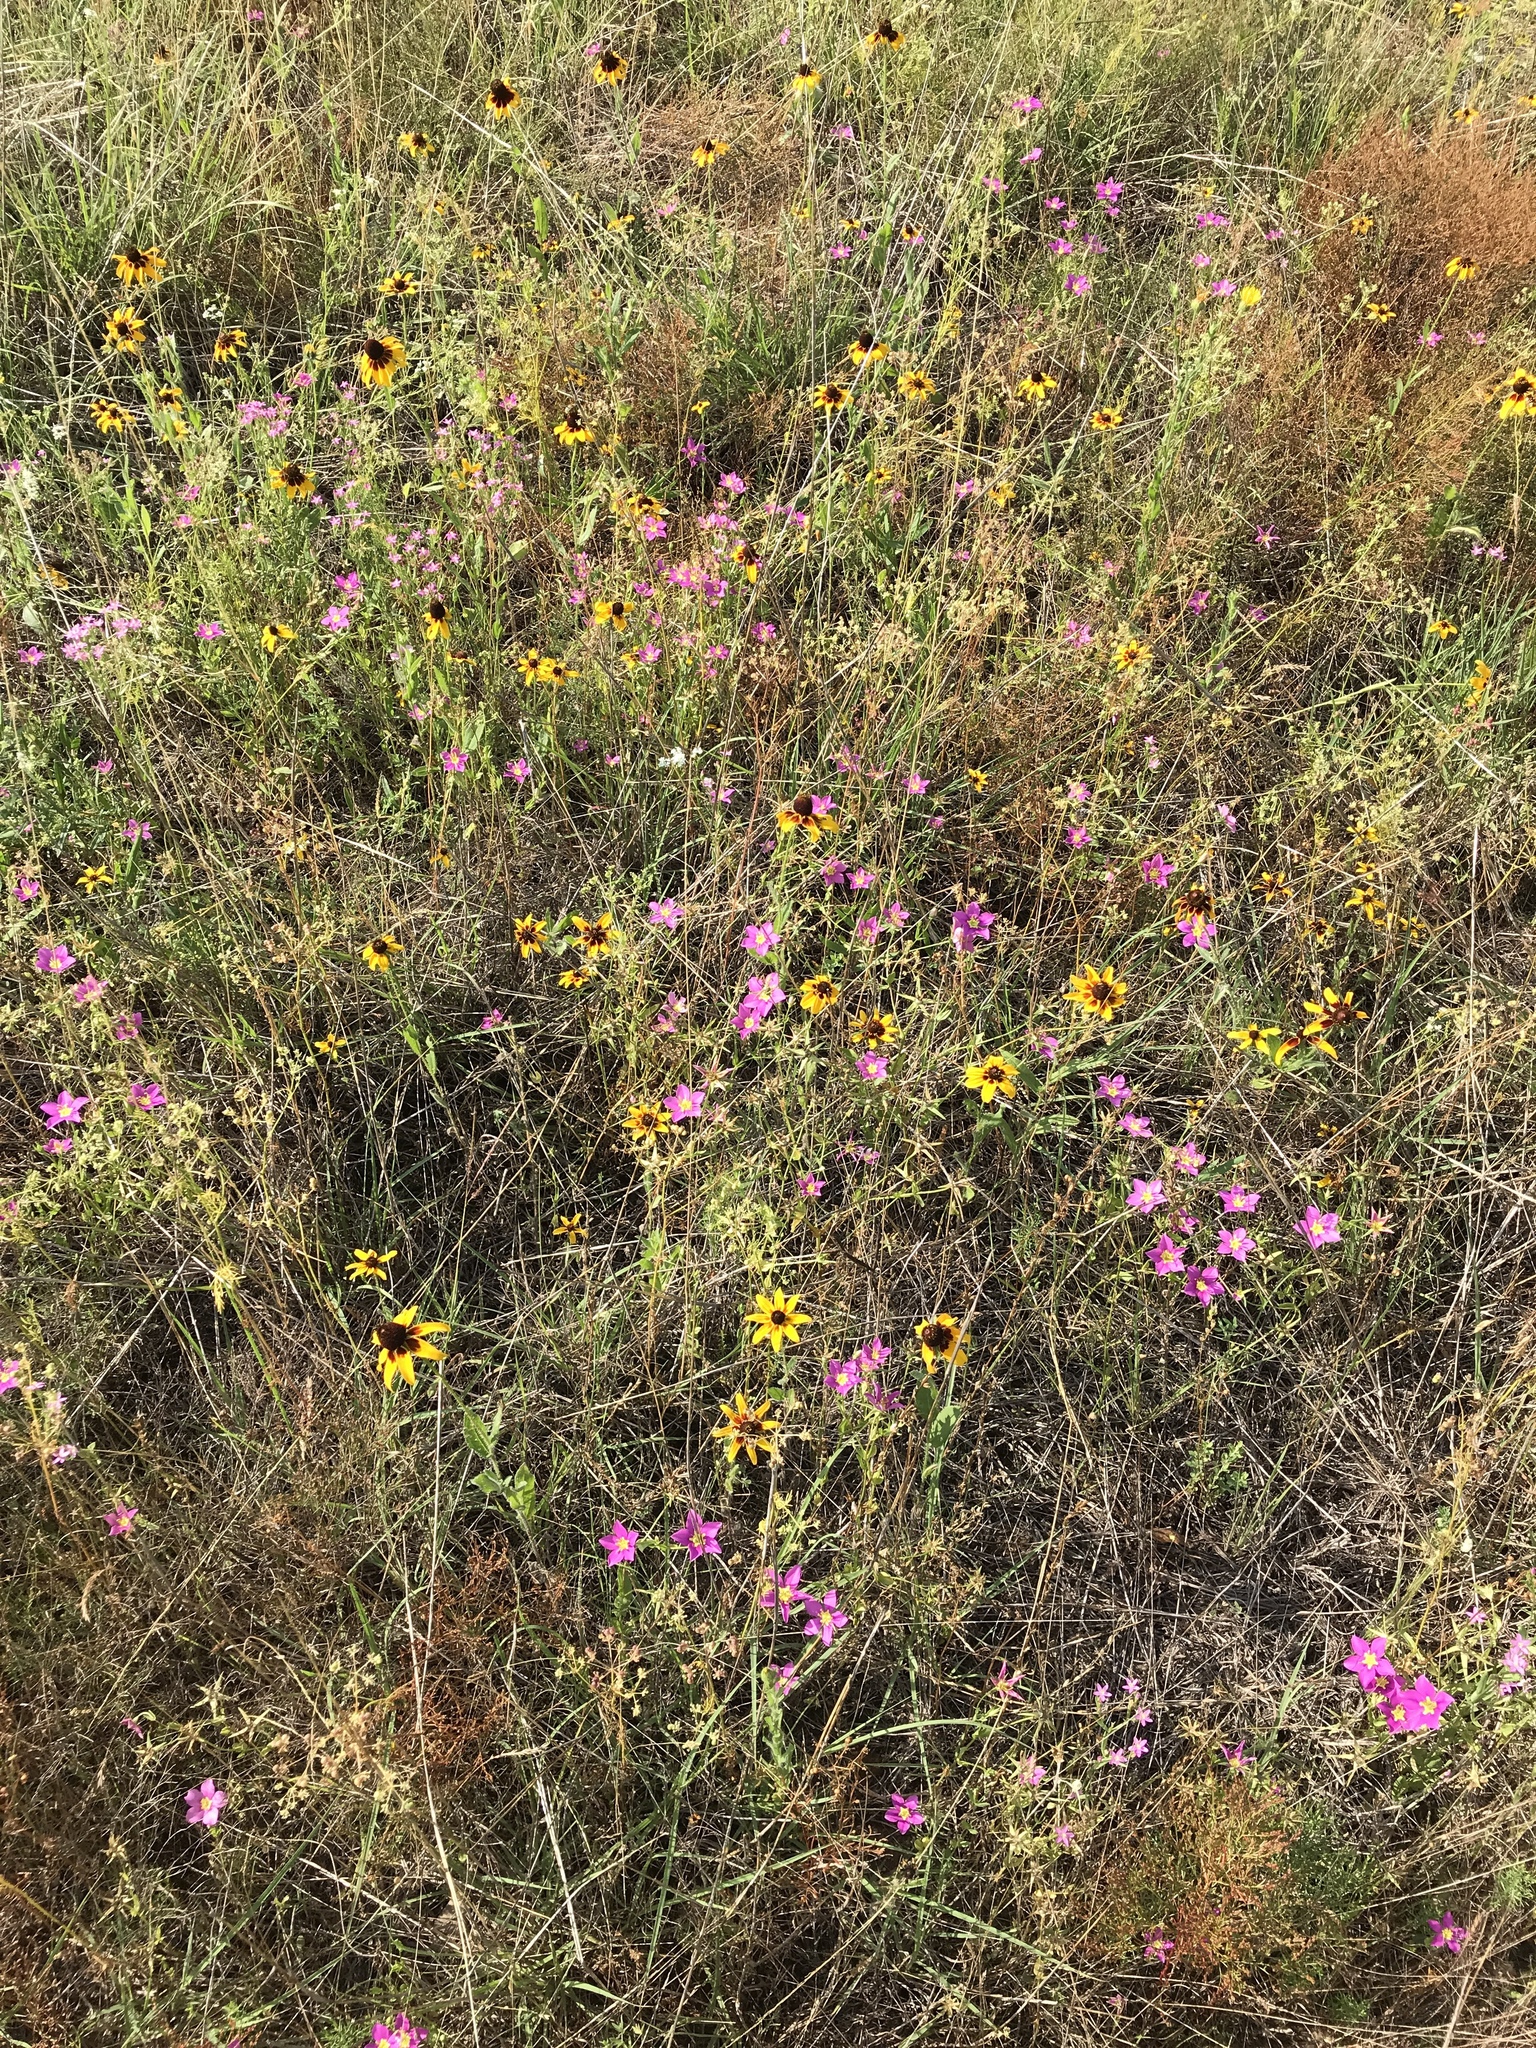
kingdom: Plantae
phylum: Tracheophyta
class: Magnoliopsida
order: Gentianales
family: Gentianaceae
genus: Sabatia
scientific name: Sabatia campestris
